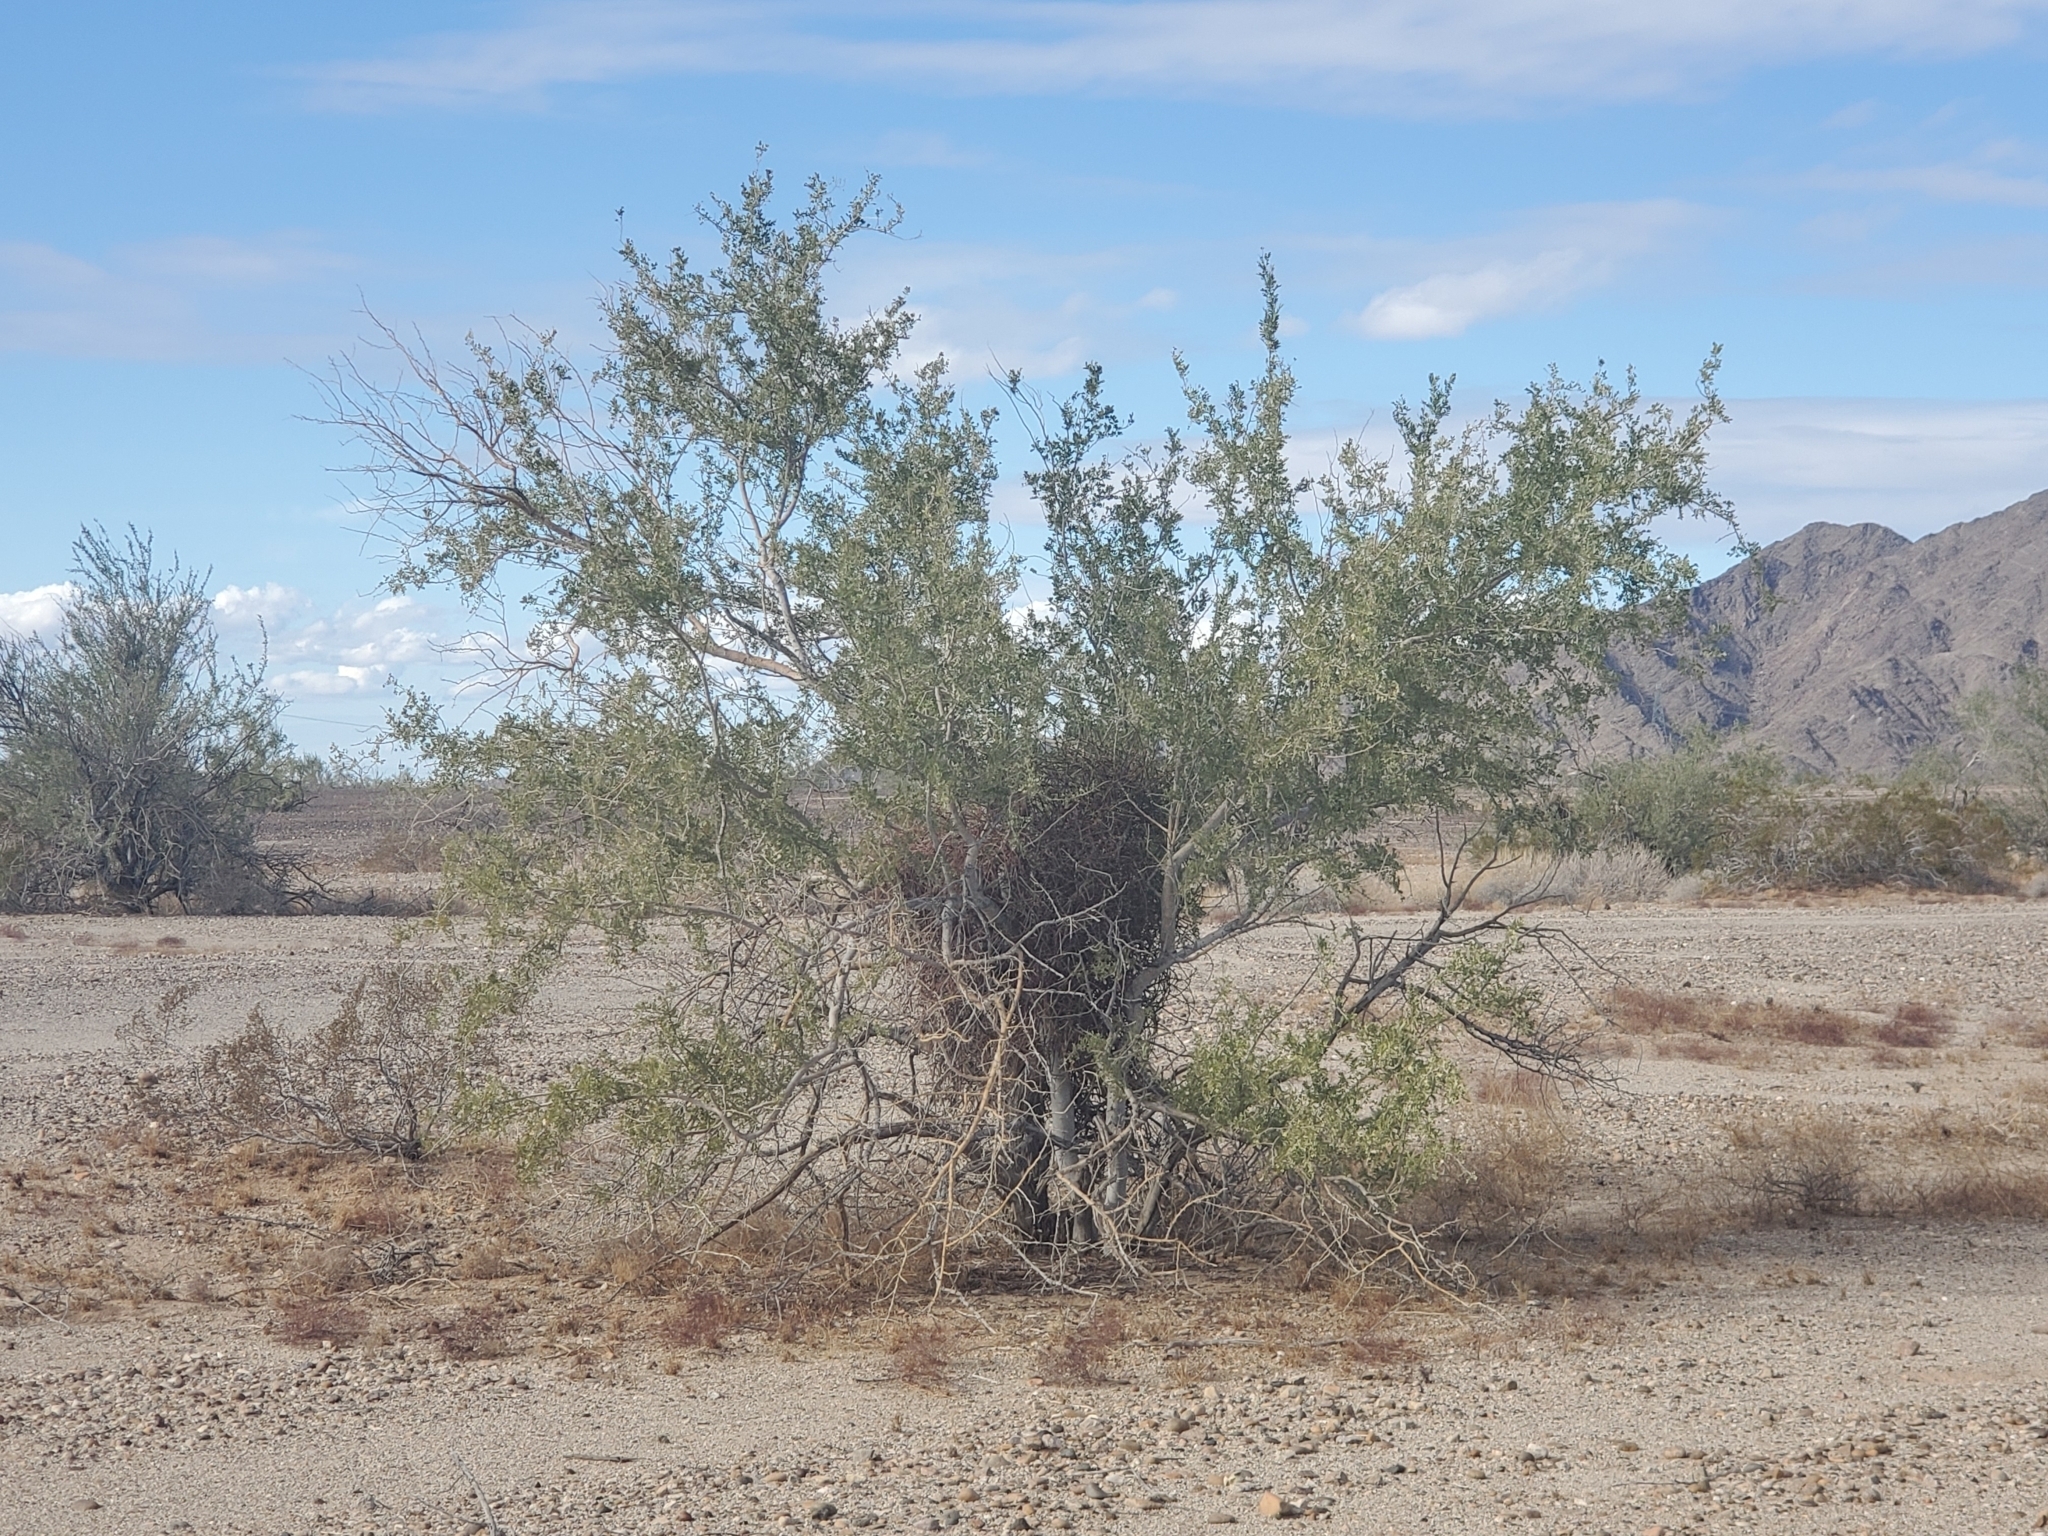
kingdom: Plantae
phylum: Tracheophyta
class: Magnoliopsida
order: Santalales
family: Viscaceae
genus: Phoradendron
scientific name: Phoradendron californicum
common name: Acacia mistletoe
